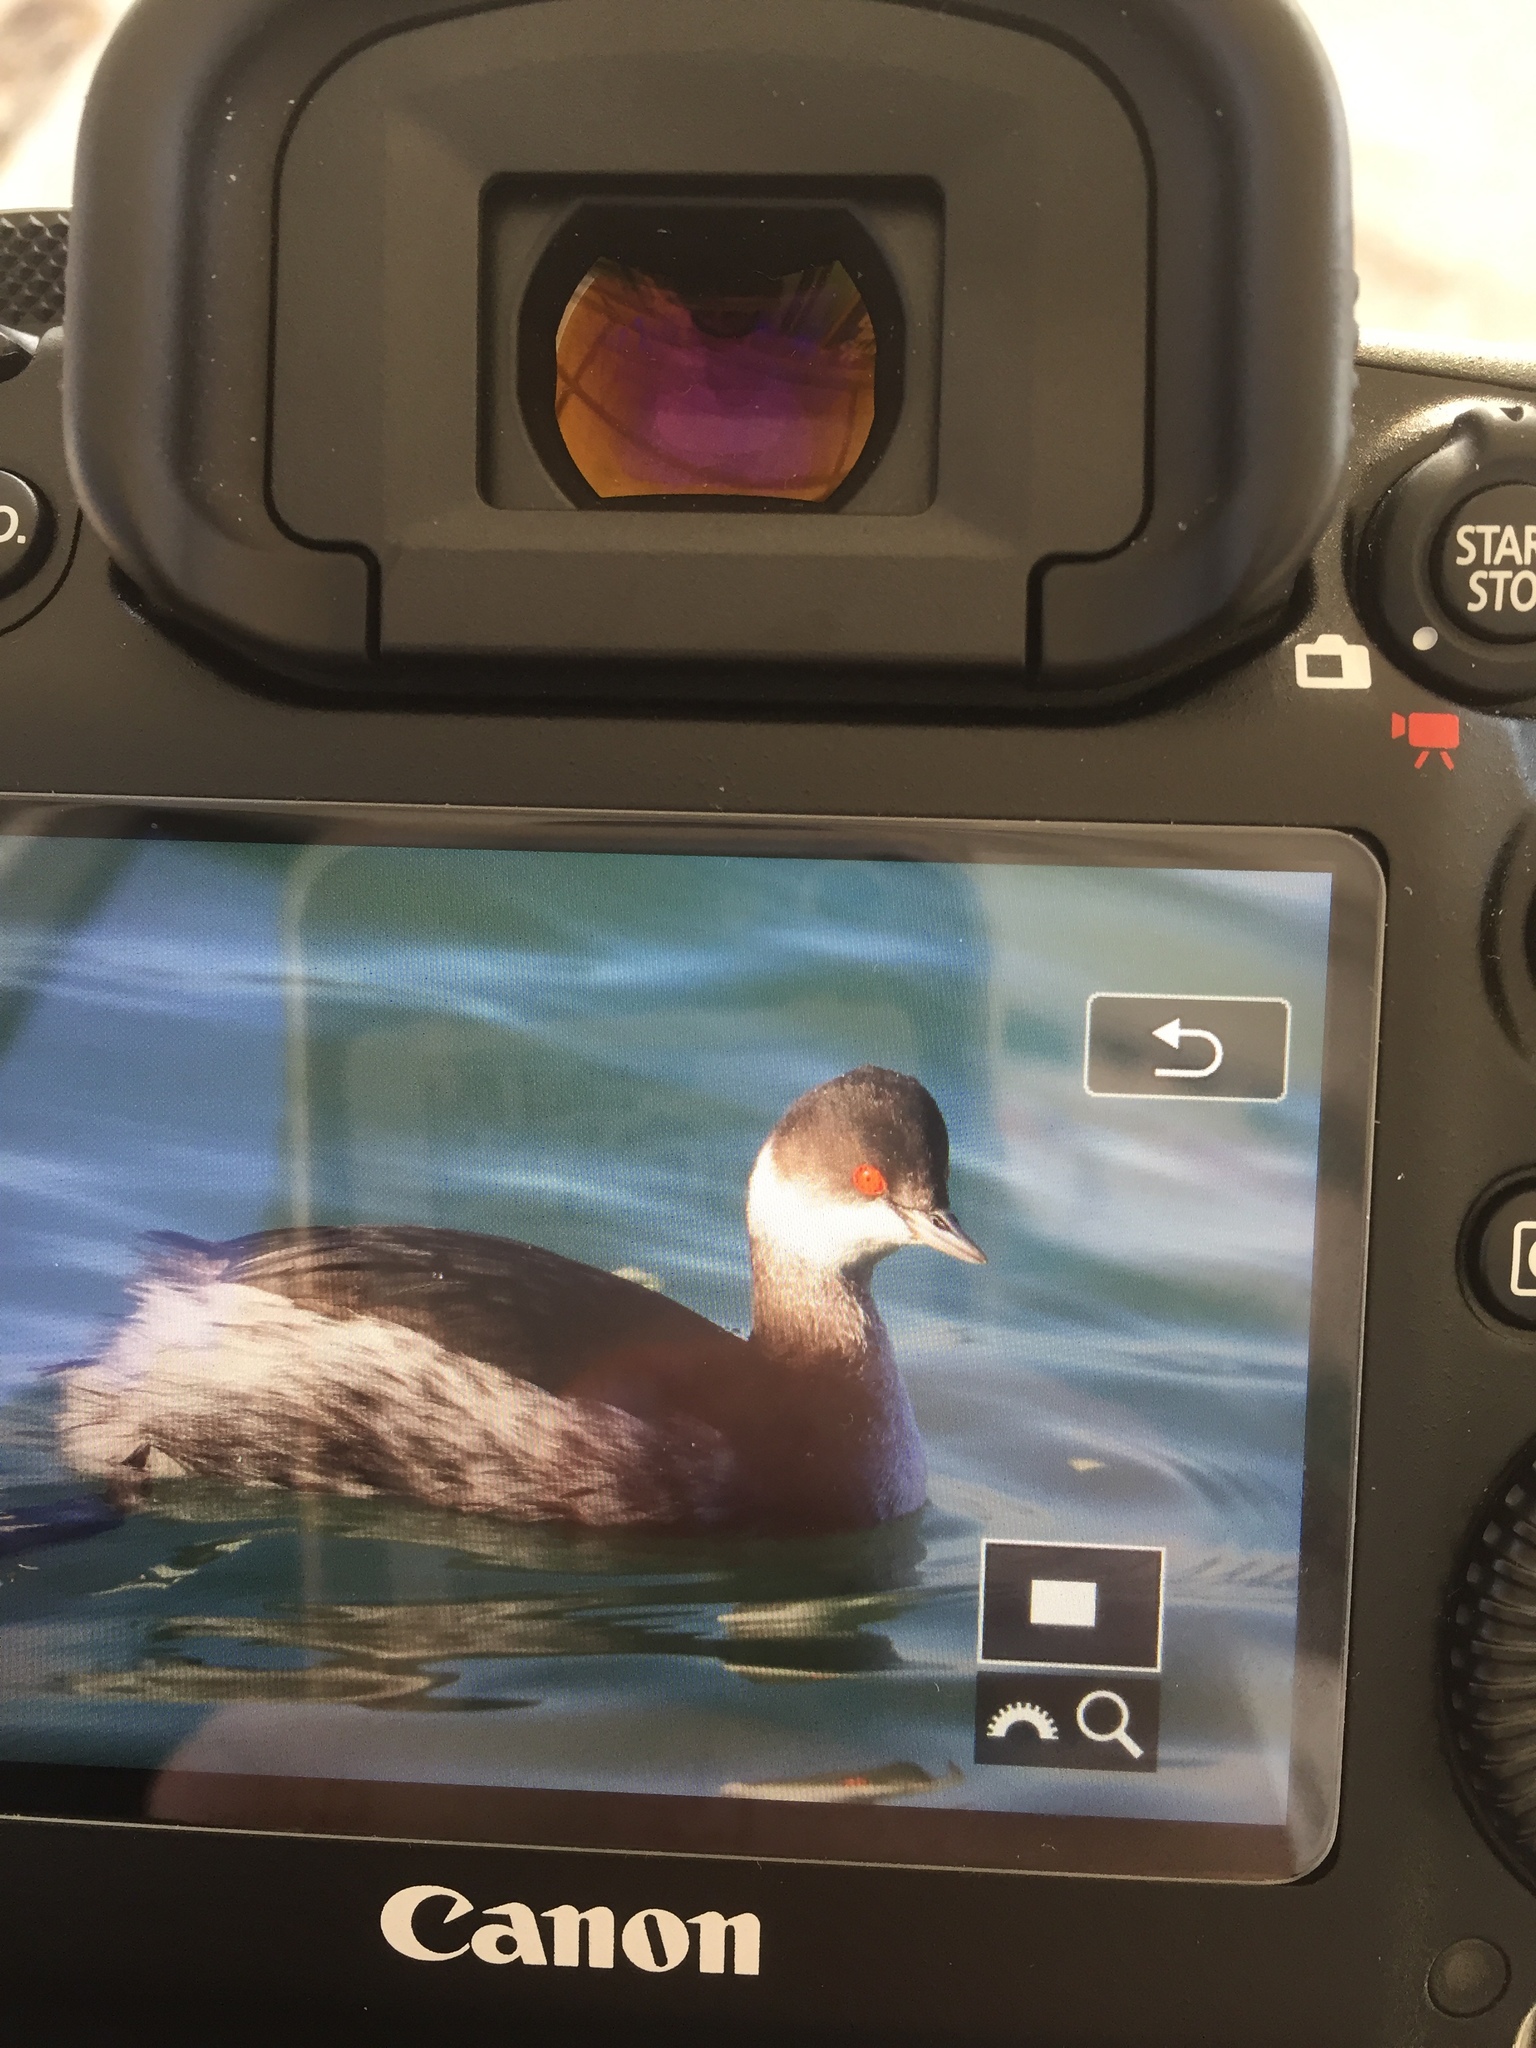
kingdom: Animalia
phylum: Chordata
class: Aves
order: Podicipediformes
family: Podicipedidae
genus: Podiceps
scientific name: Podiceps nigricollis
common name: Black-necked grebe
